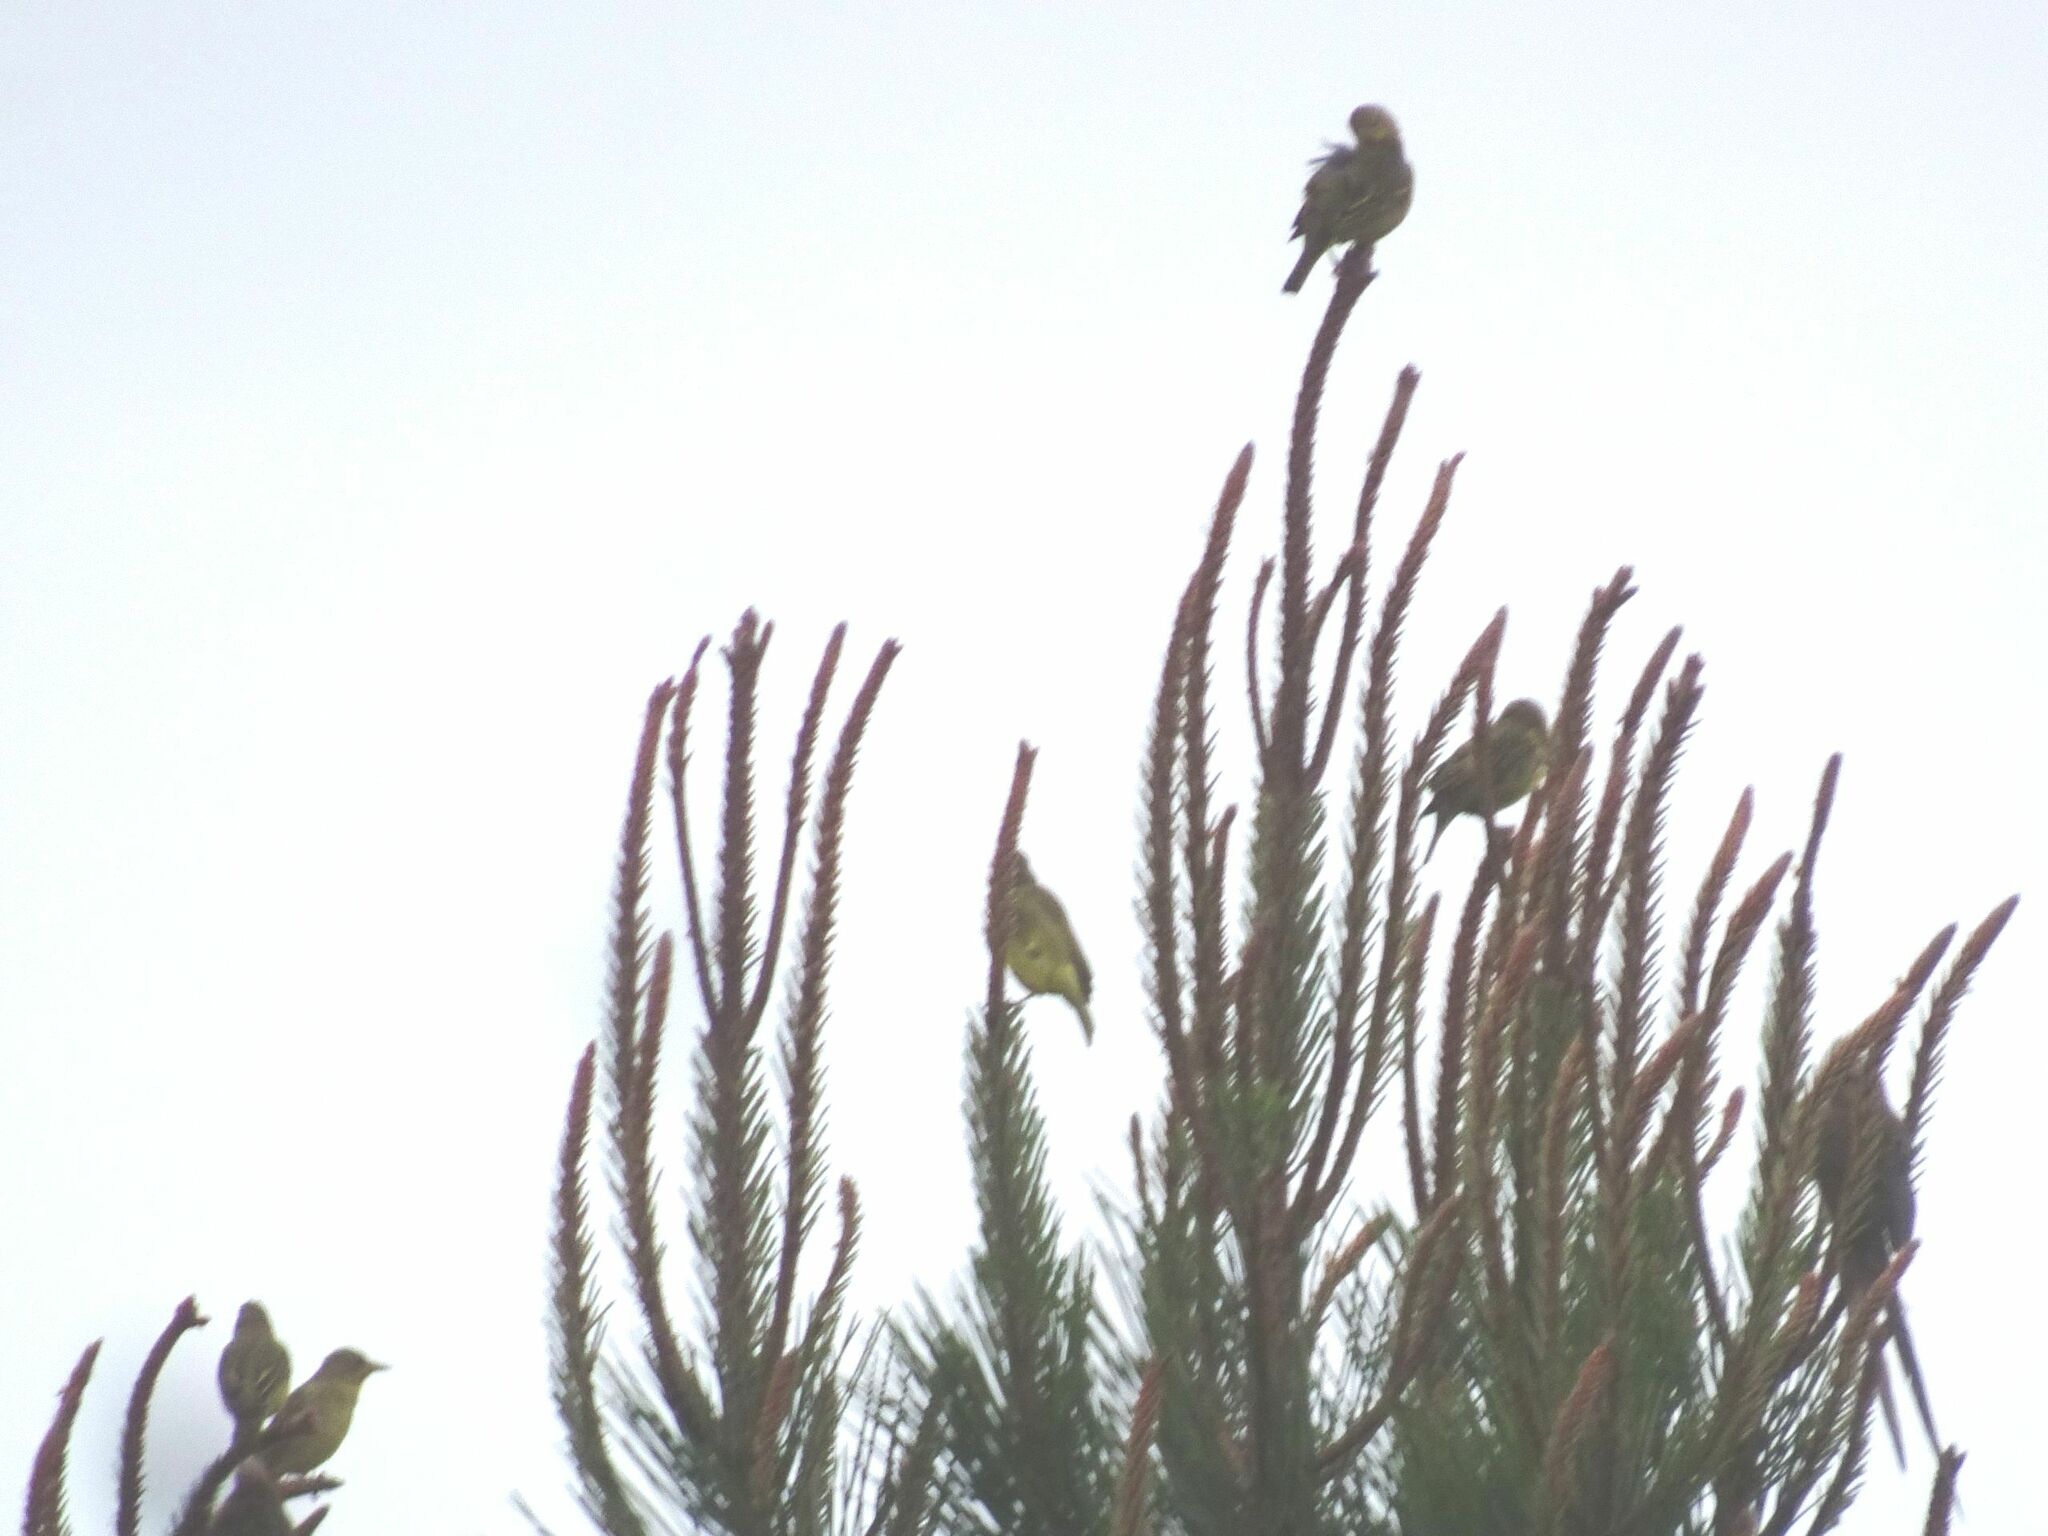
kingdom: Animalia
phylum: Chordata
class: Aves
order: Passeriformes
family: Ploceidae
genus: Ploceus
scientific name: Ploceus capensis
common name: Cape weaver
